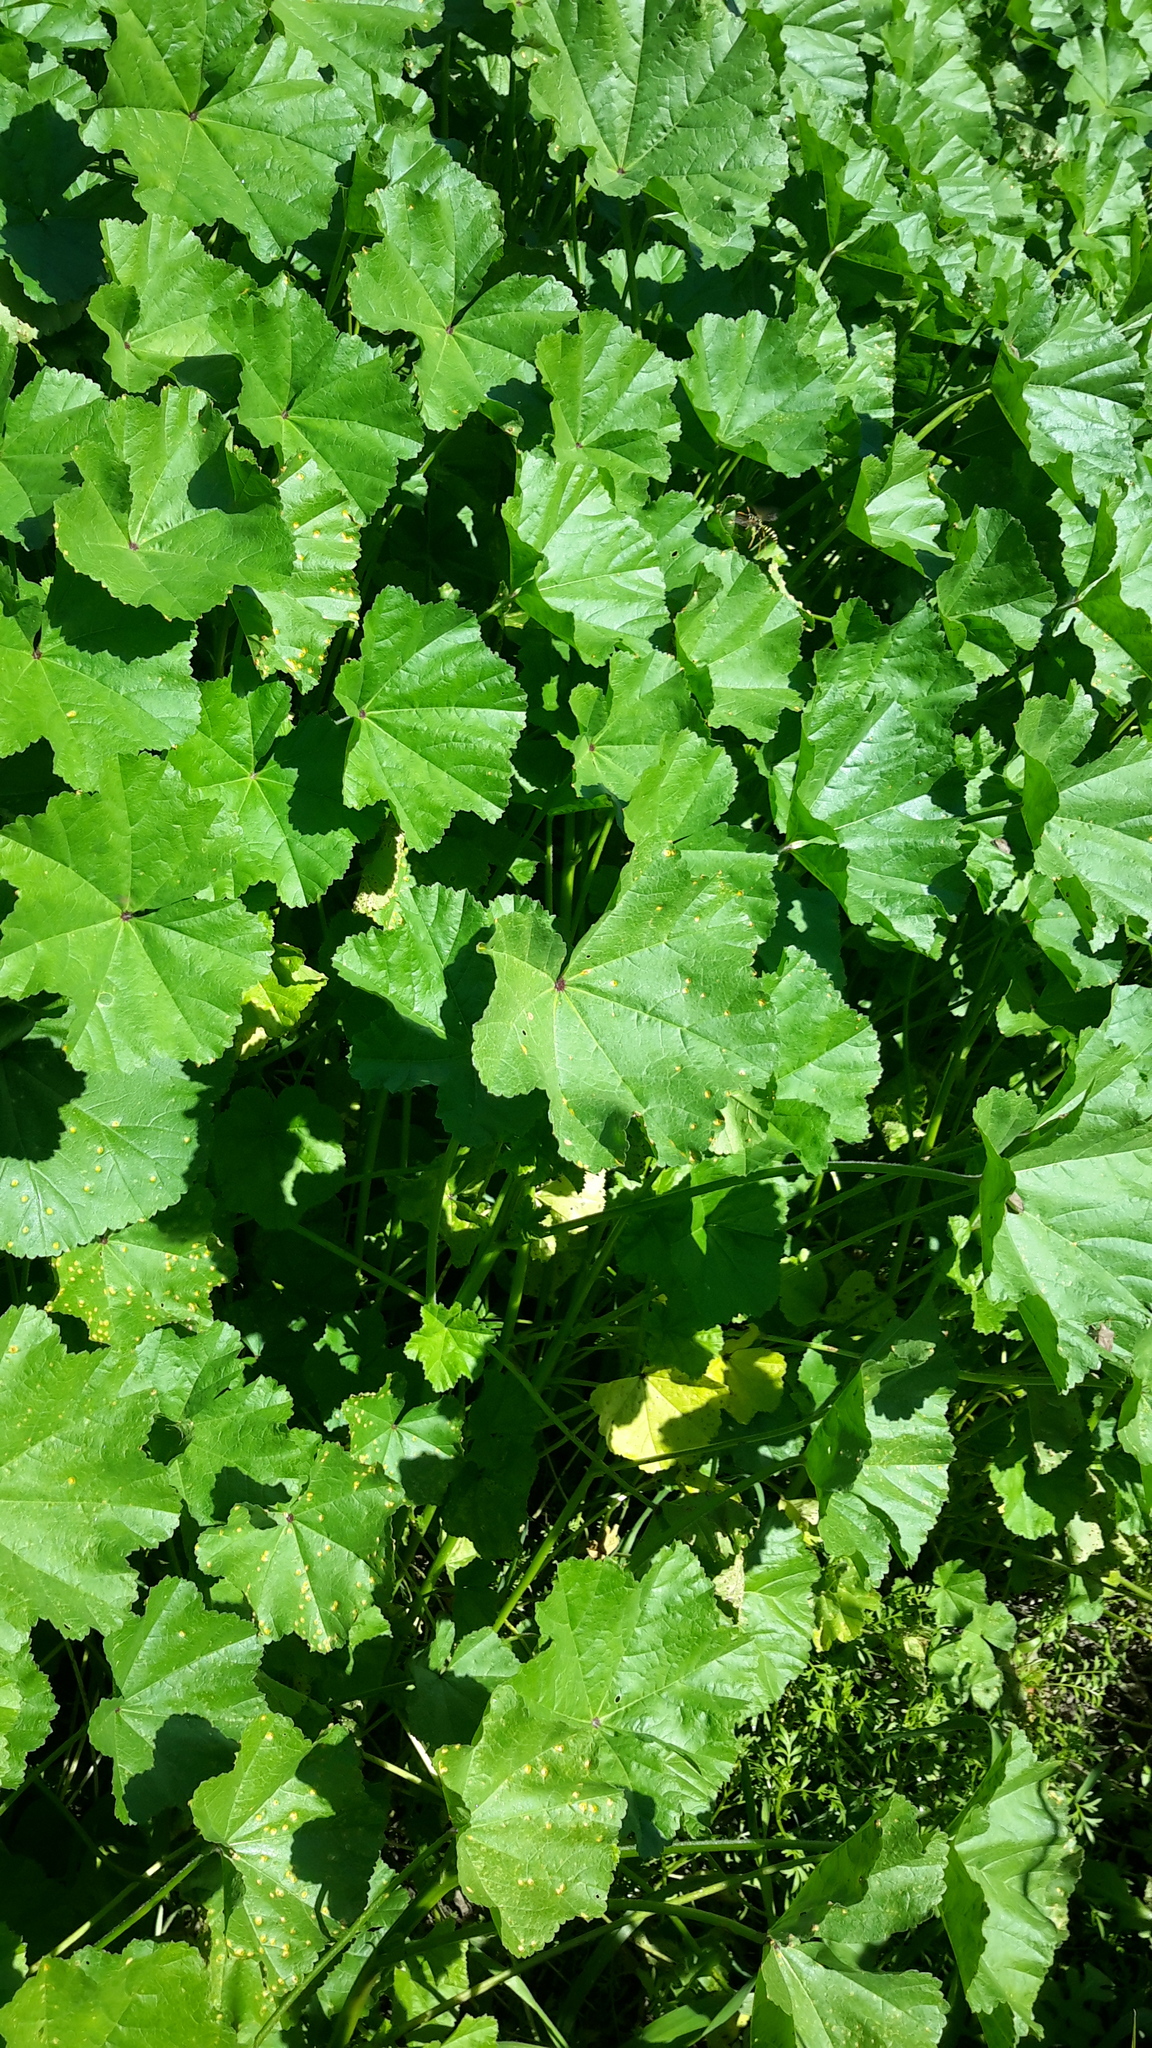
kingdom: Plantae
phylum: Tracheophyta
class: Magnoliopsida
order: Malvales
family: Malvaceae
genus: Malva
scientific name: Malva
